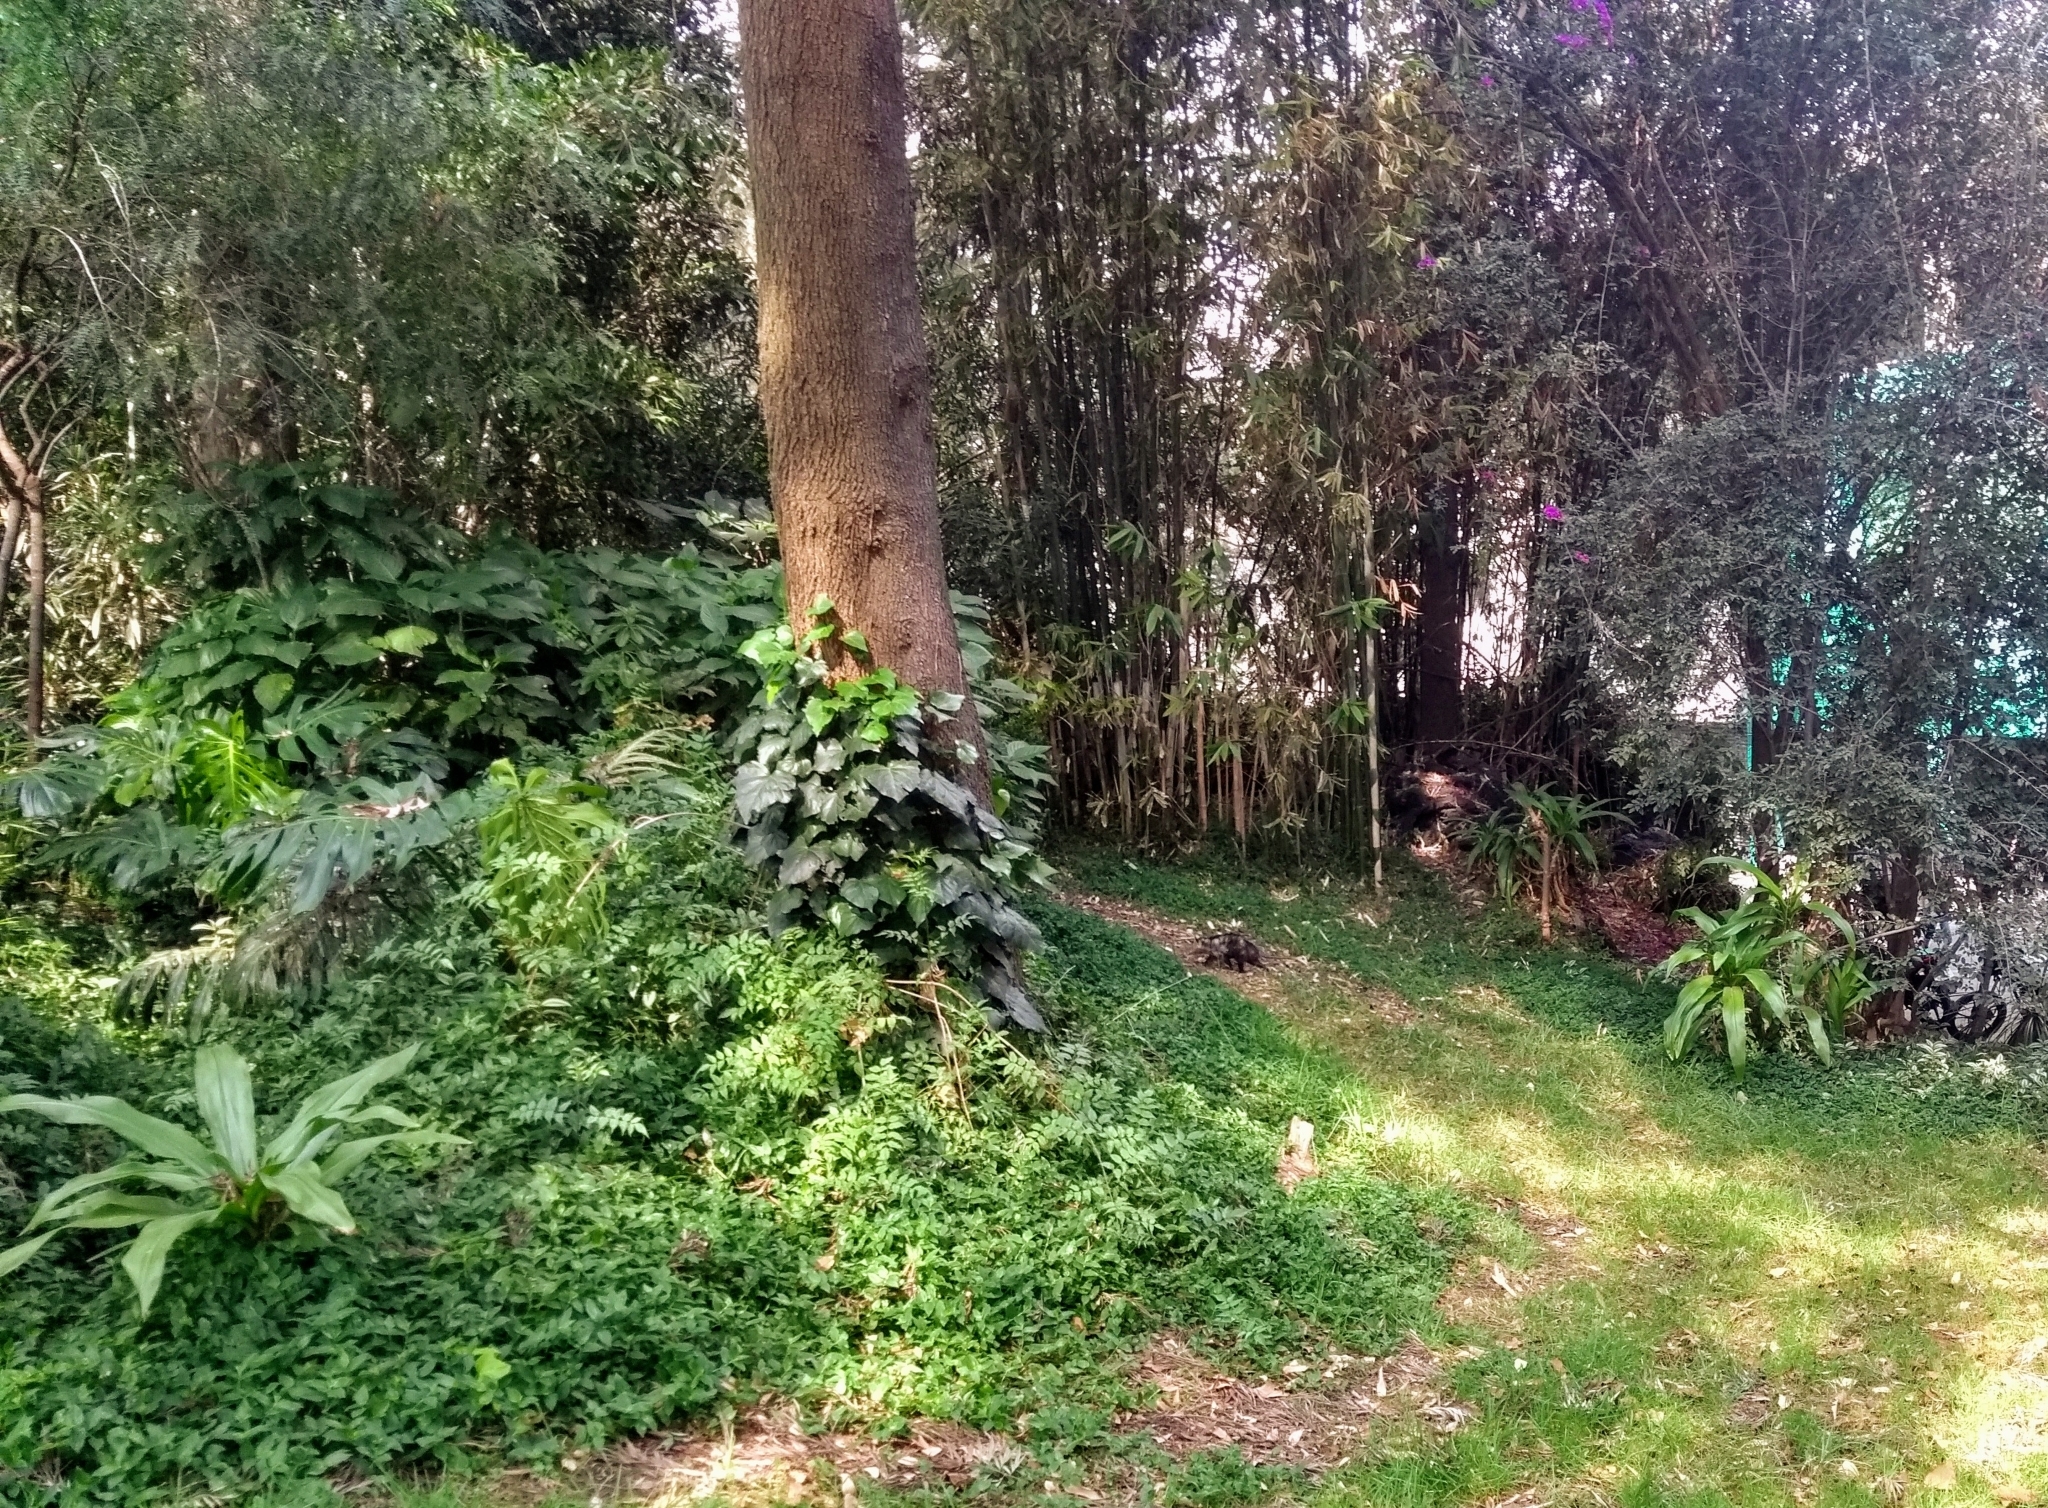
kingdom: Animalia
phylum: Chordata
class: Mammalia
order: Didelphimorphia
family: Didelphidae
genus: Didelphis
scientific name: Didelphis virginiana
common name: Virginia opossum
